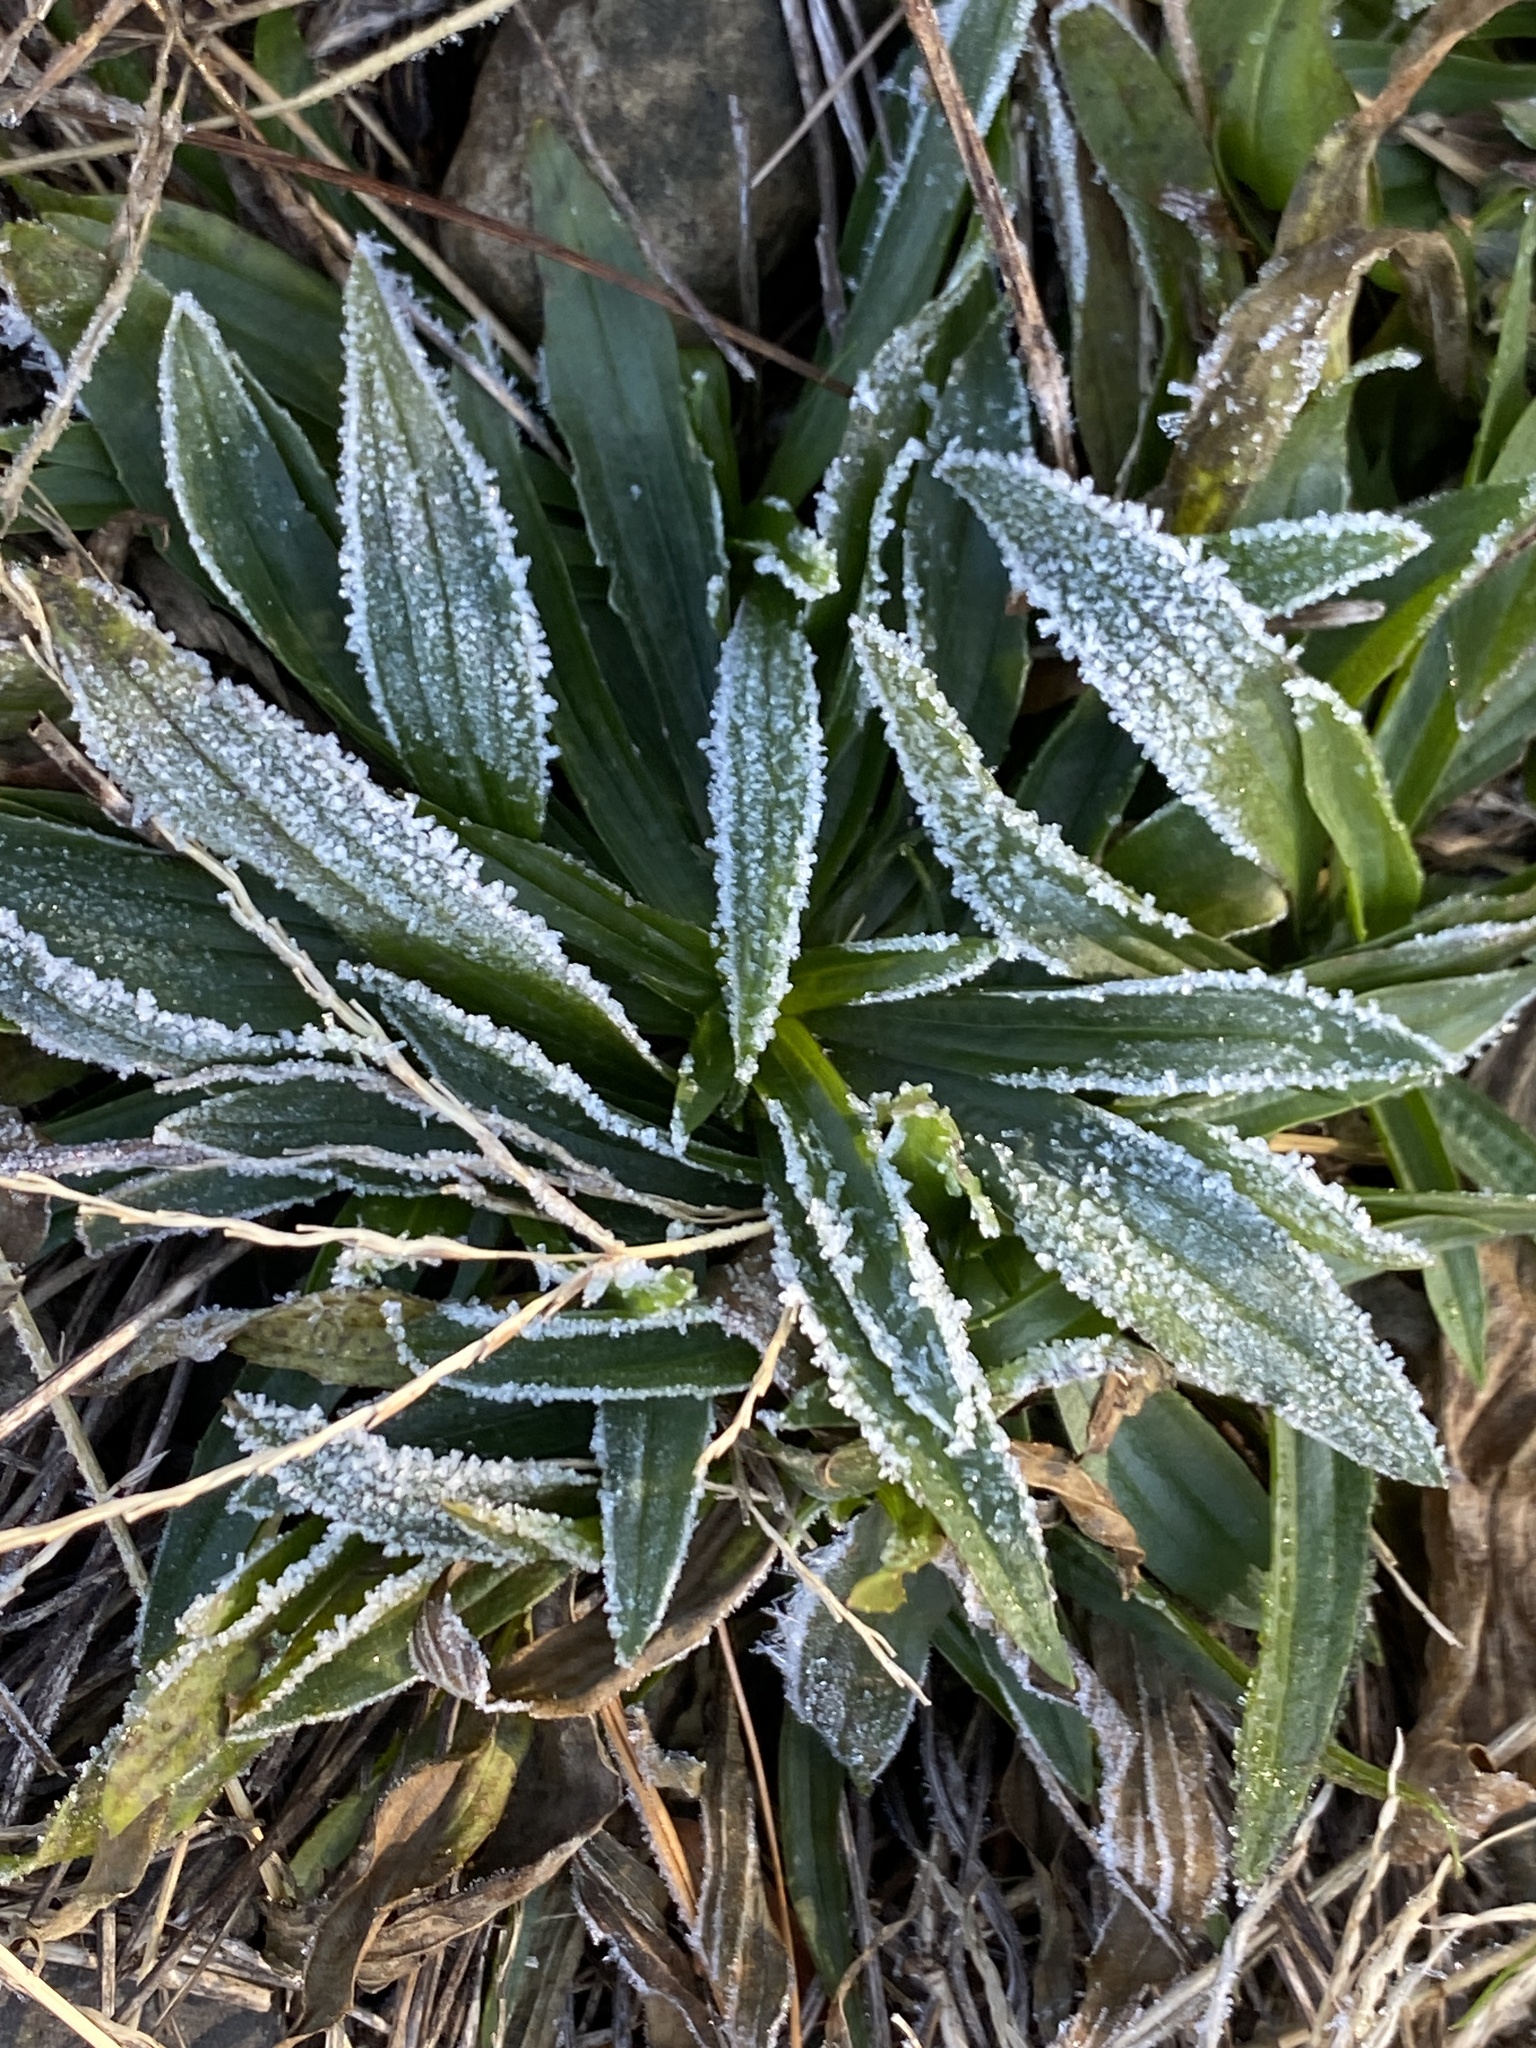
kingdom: Plantae
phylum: Tracheophyta
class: Magnoliopsida
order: Lamiales
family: Plantaginaceae
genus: Plantago
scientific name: Plantago lanceolata
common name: Ribwort plantain
